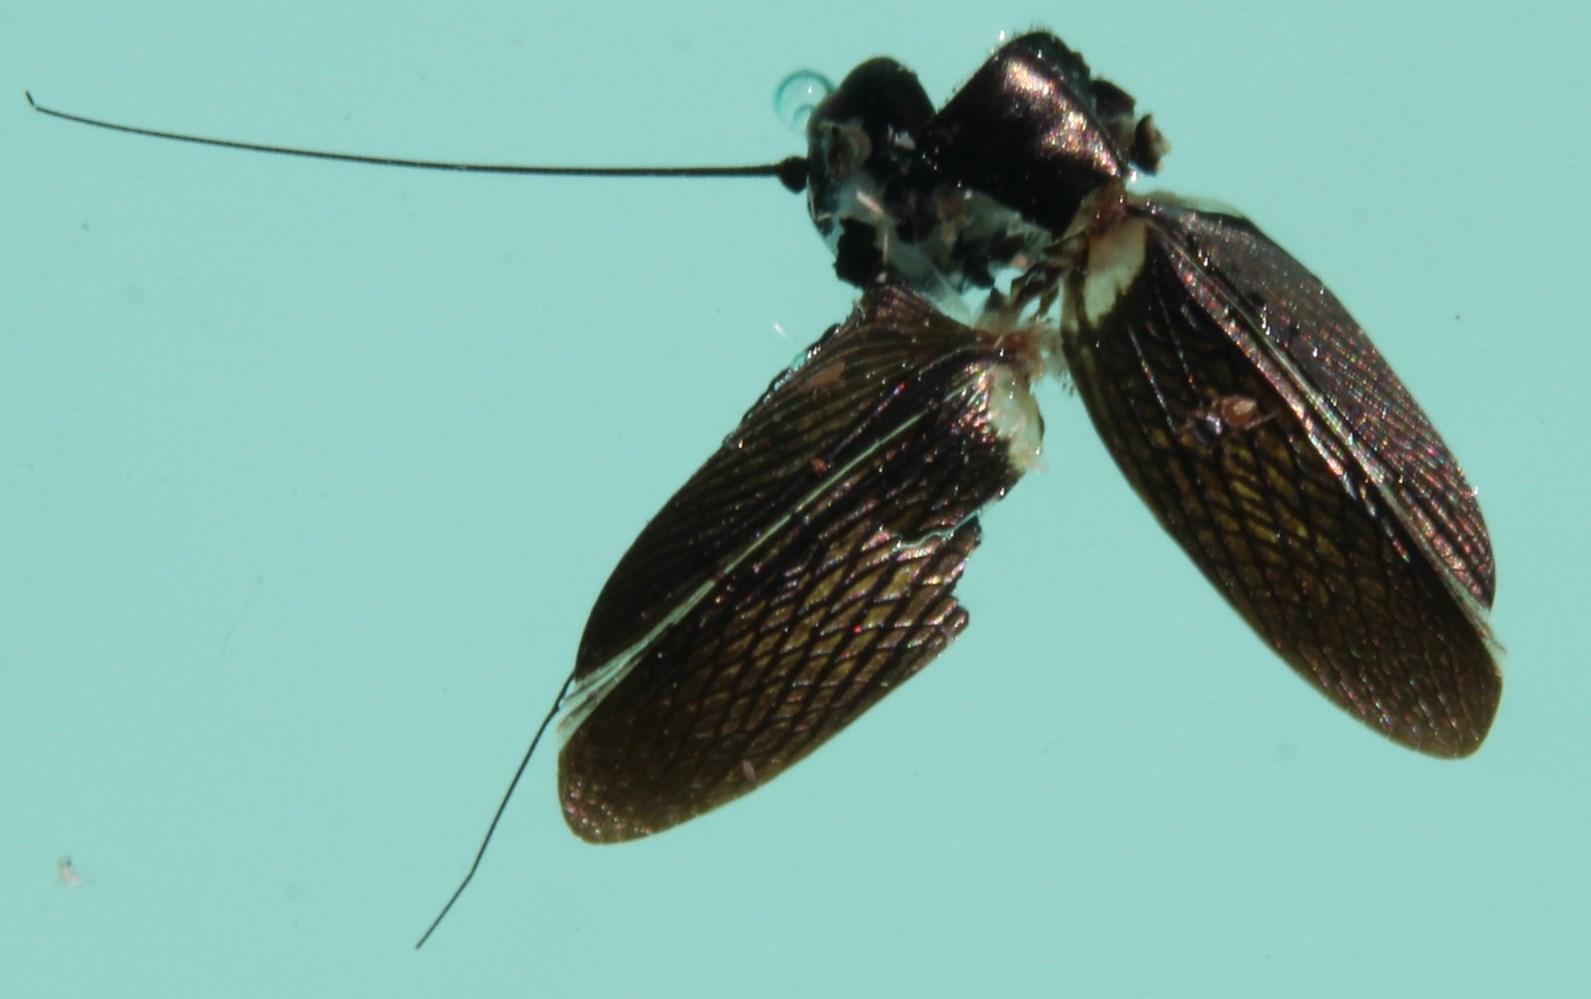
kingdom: Animalia
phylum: Arthropoda
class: Insecta
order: Orthoptera
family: Gryllidae
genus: Gryllus
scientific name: Gryllus bimaculatus
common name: Two-spotted cricket
